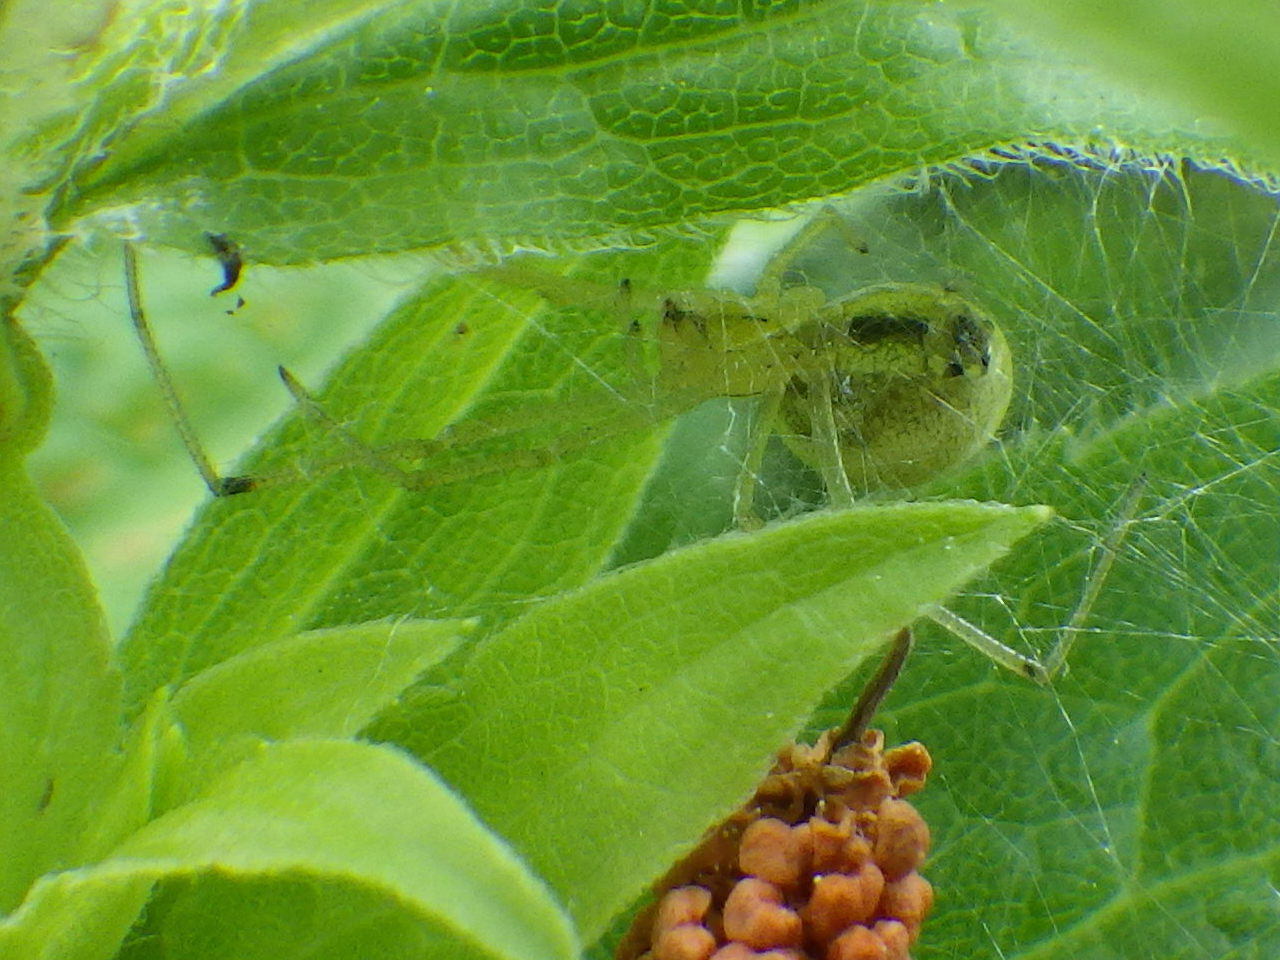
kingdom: Animalia
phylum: Arthropoda
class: Arachnida
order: Araneae
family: Theridiidae
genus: Enoplognatha
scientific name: Enoplognatha ovata
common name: Common candy-striped spider
